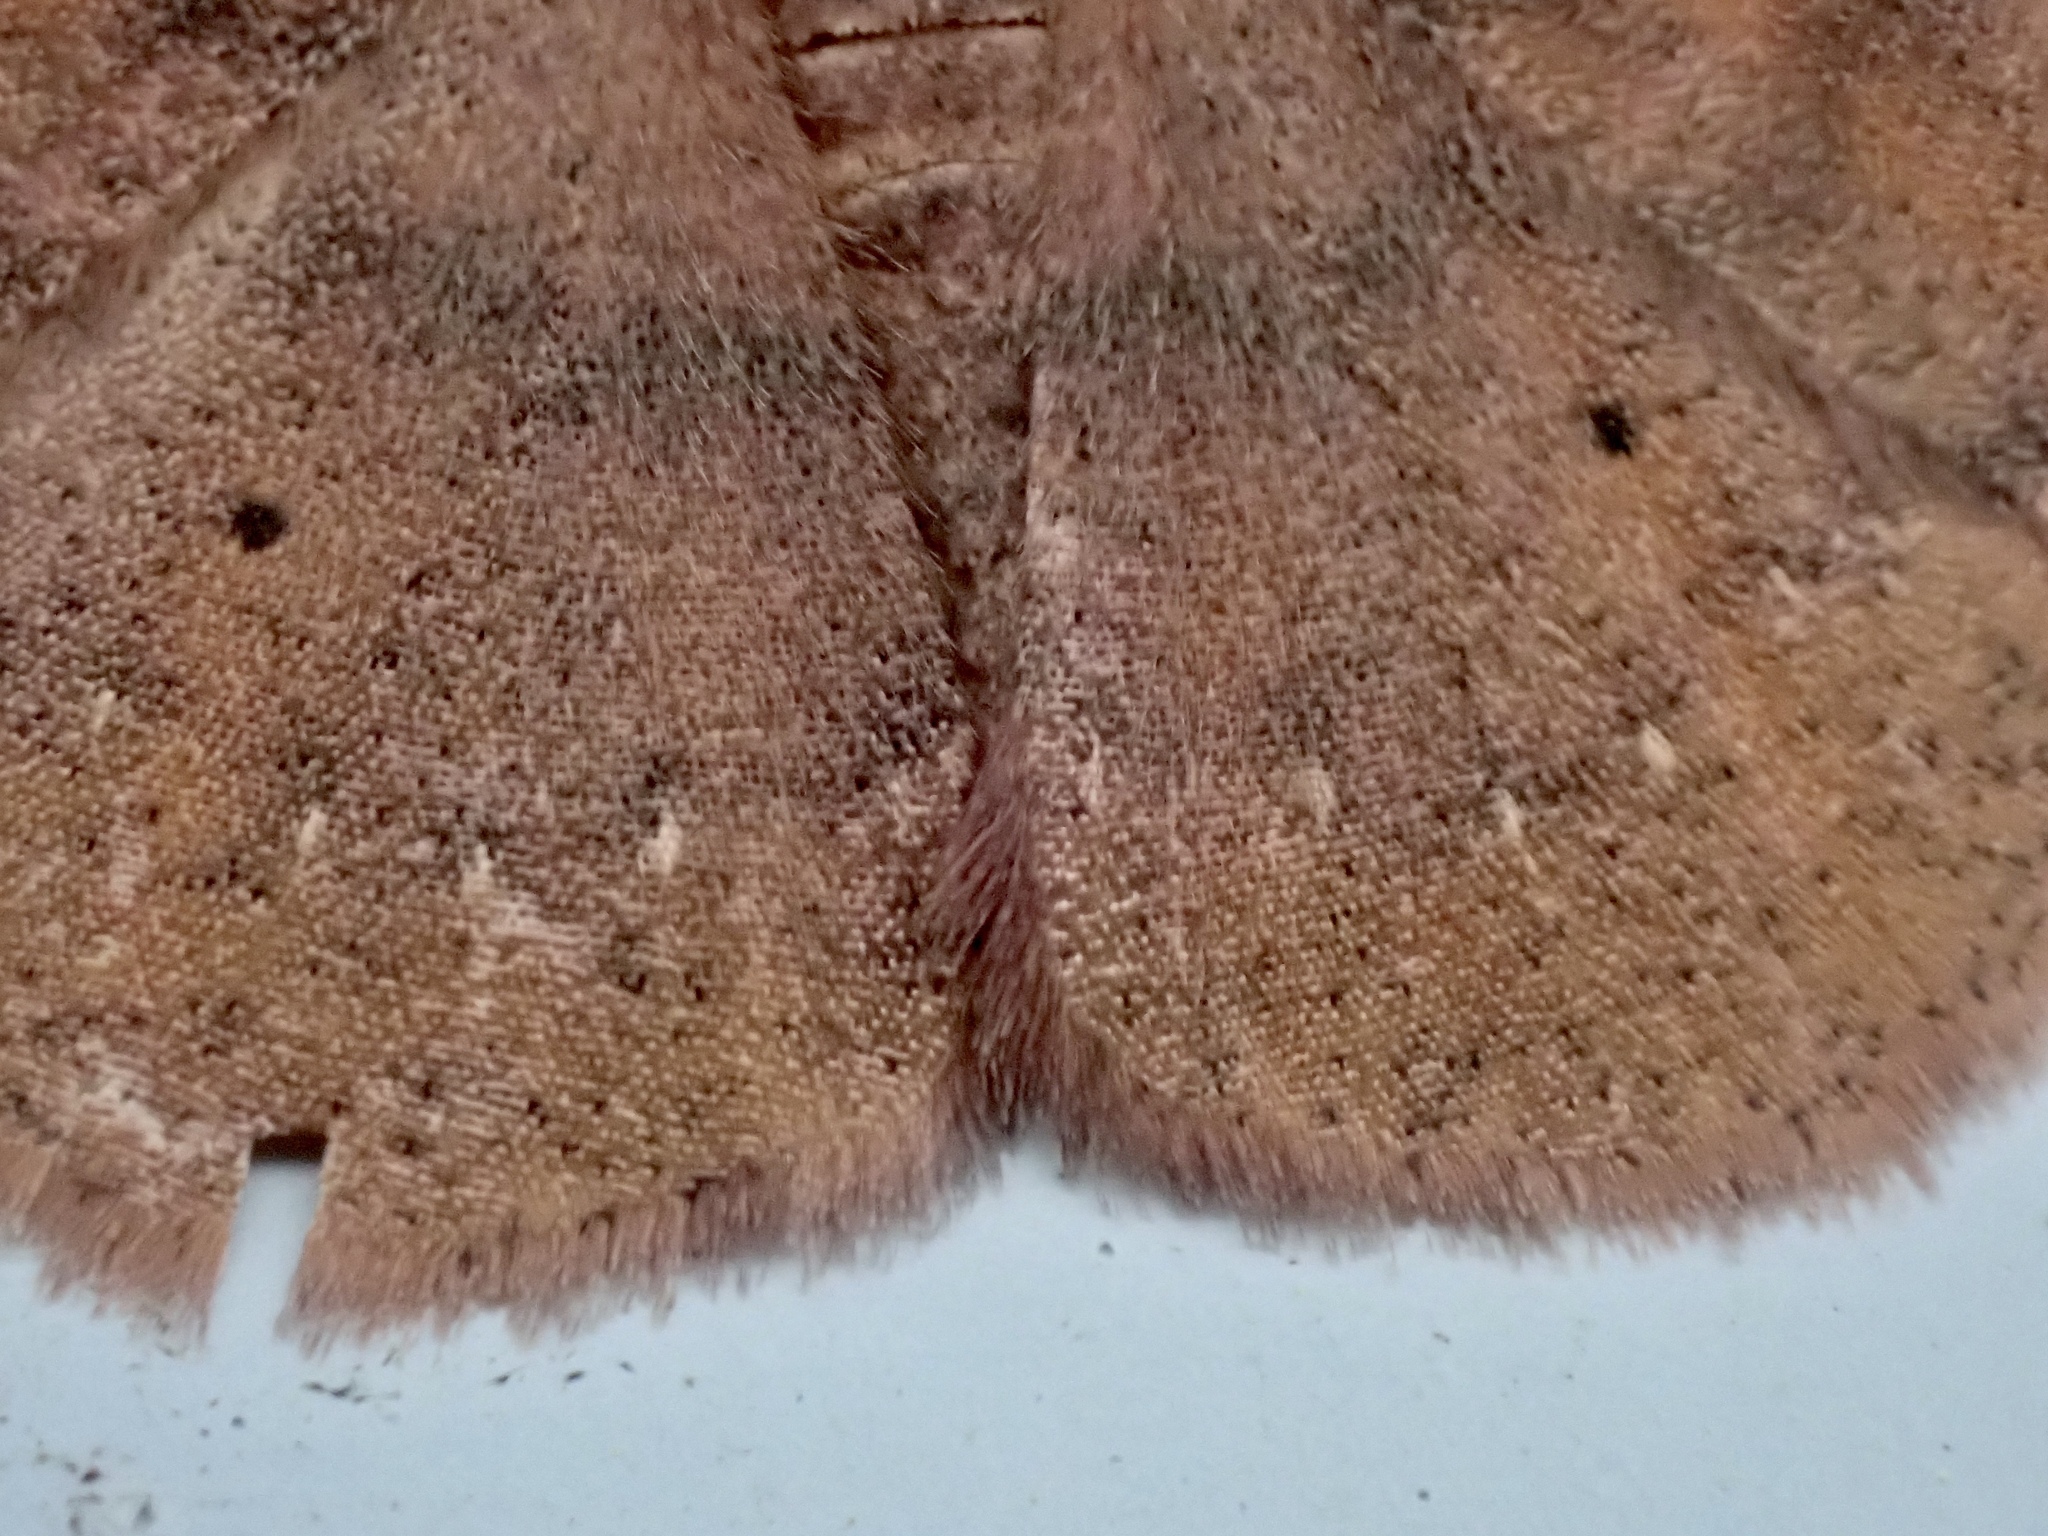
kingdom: Animalia
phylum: Arthropoda
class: Insecta
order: Lepidoptera
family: Geometridae
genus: Ilexia
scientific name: Ilexia intractata
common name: Black-dotted ruddy moth
